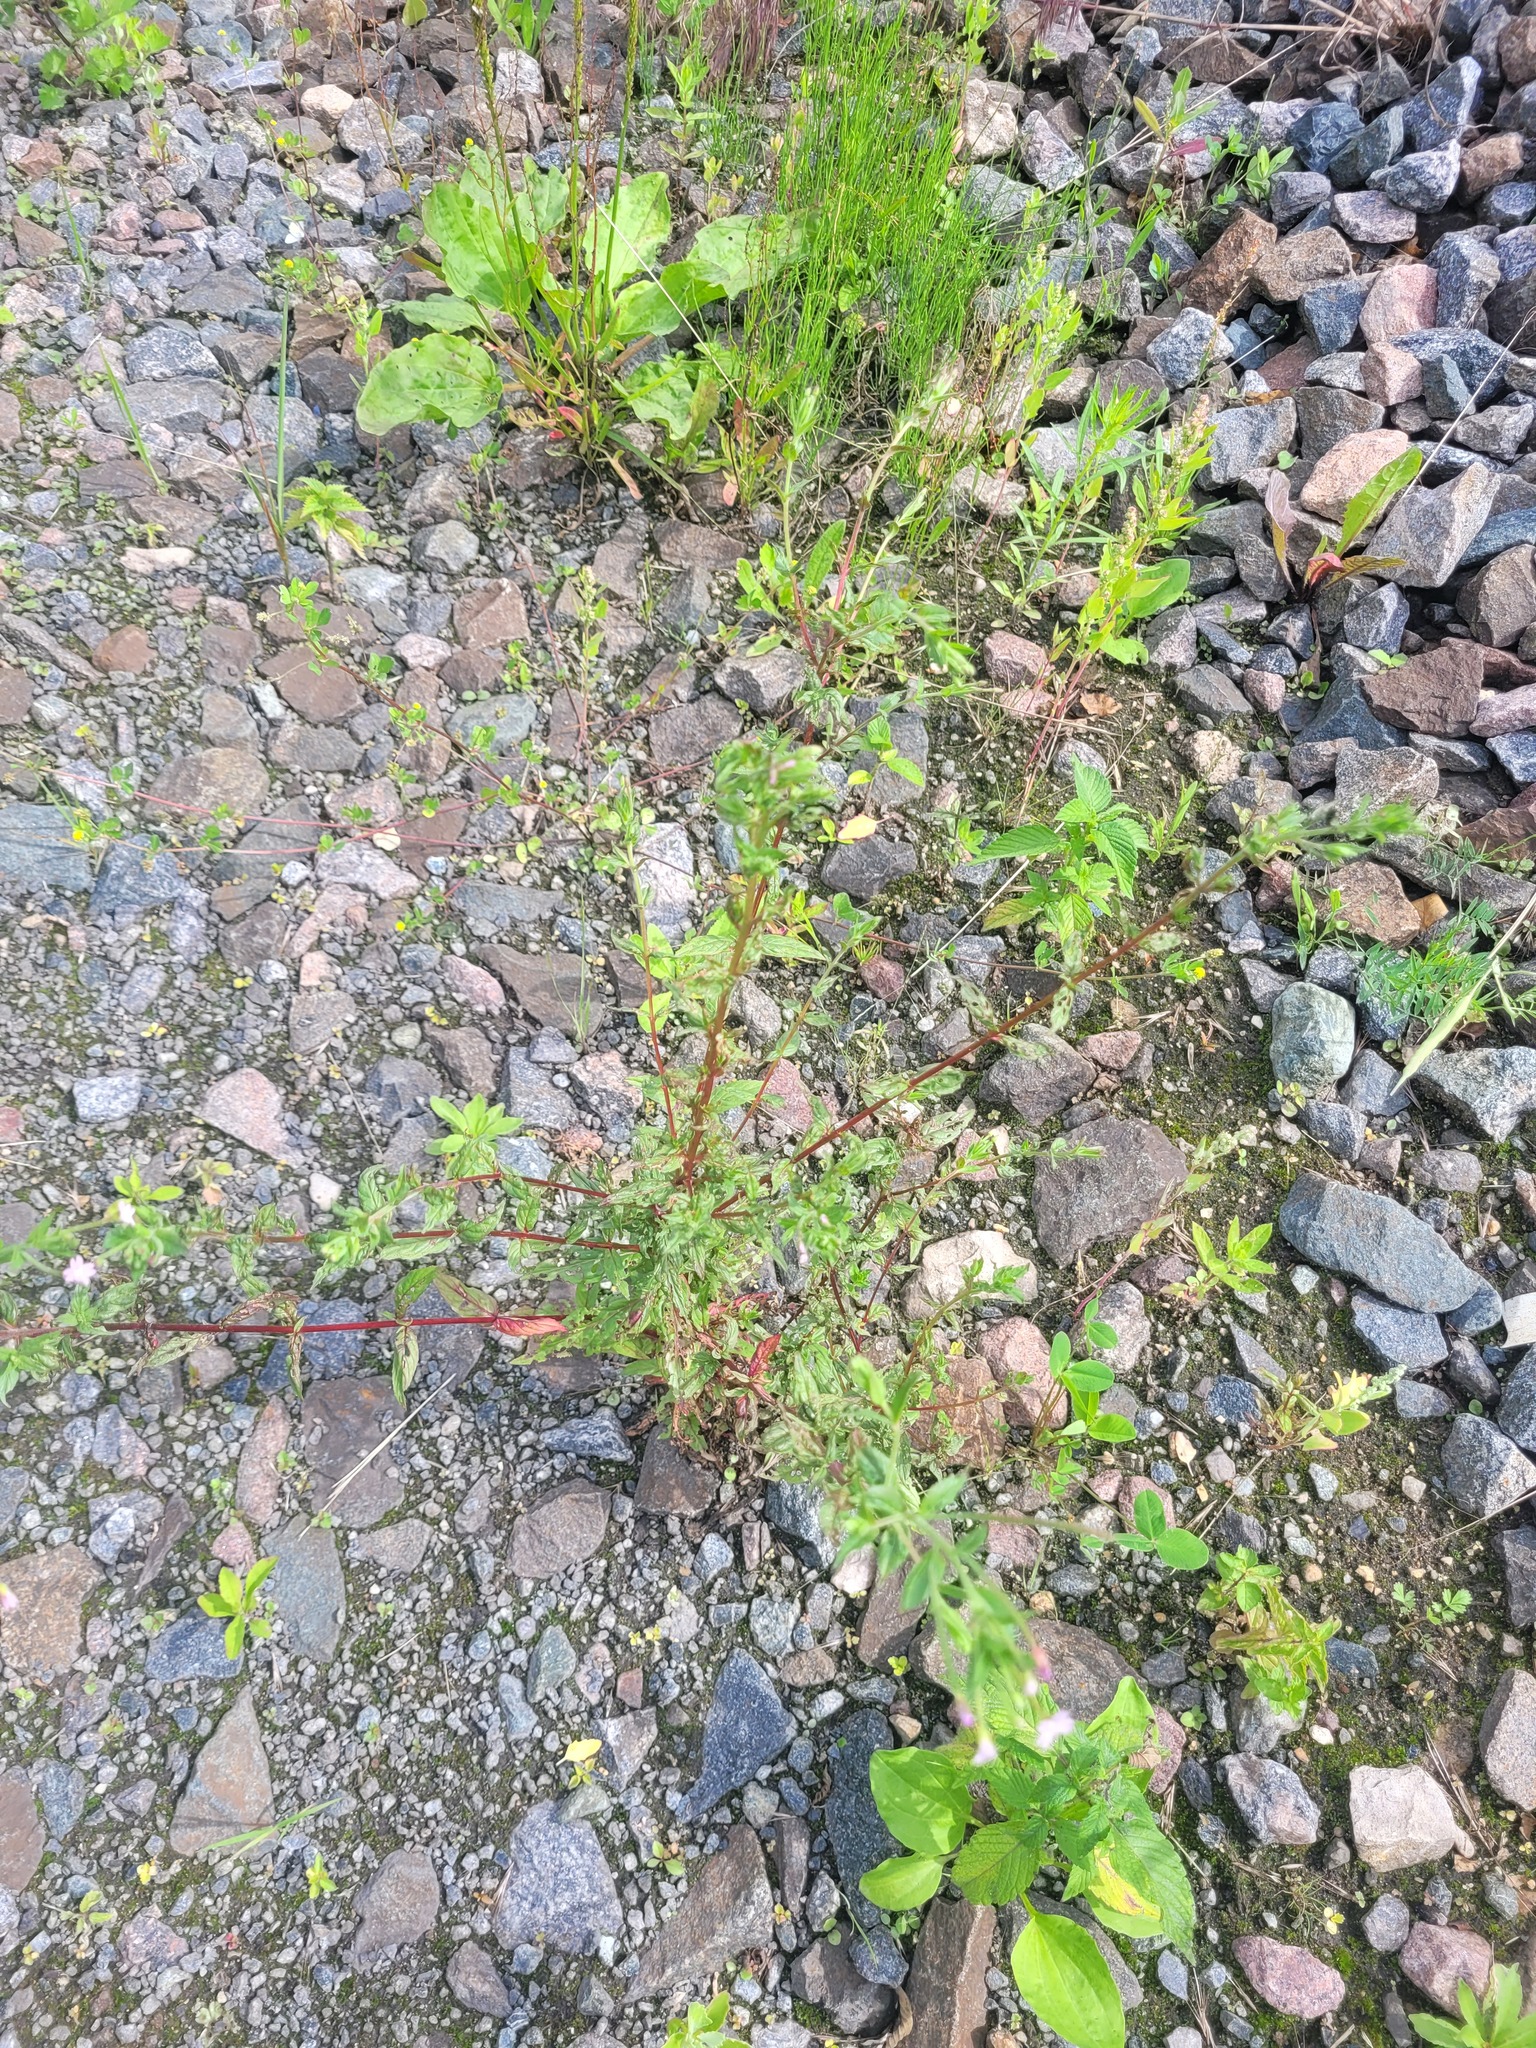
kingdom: Plantae
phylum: Tracheophyta
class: Magnoliopsida
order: Myrtales
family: Onagraceae
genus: Epilobium
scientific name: Epilobium ciliatum
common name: American willowherb
